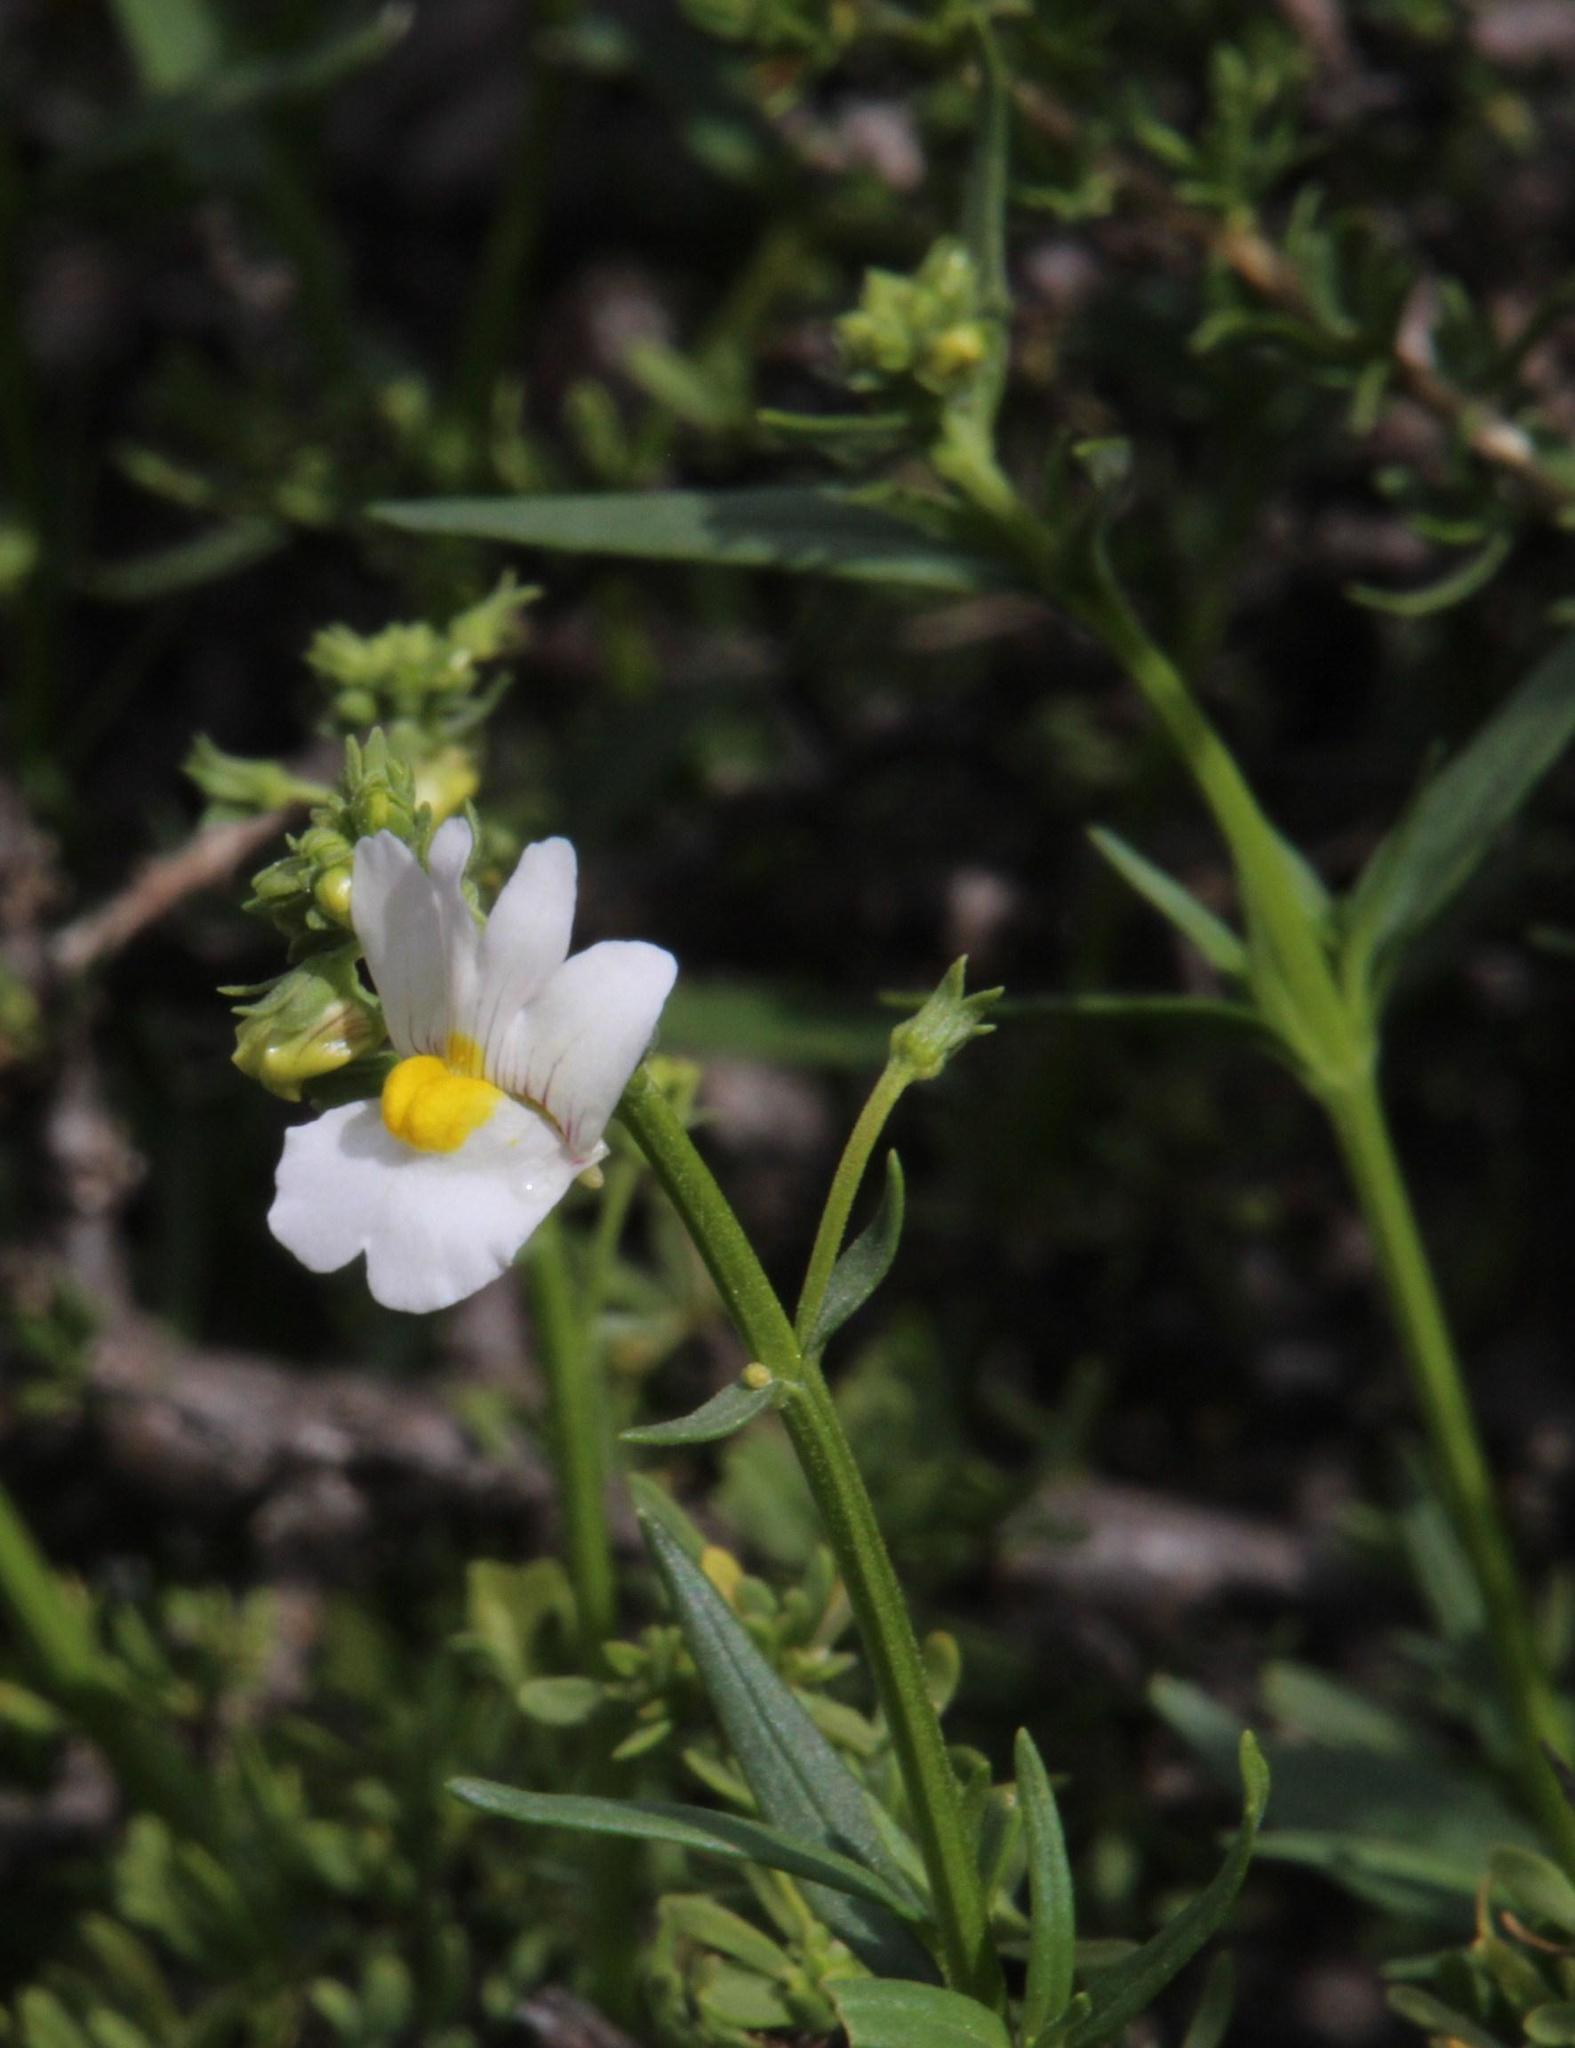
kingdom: Plantae
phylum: Tracheophyta
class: Magnoliopsida
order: Lamiales
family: Scrophulariaceae
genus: Nemesia
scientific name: Nemesia fruticans
